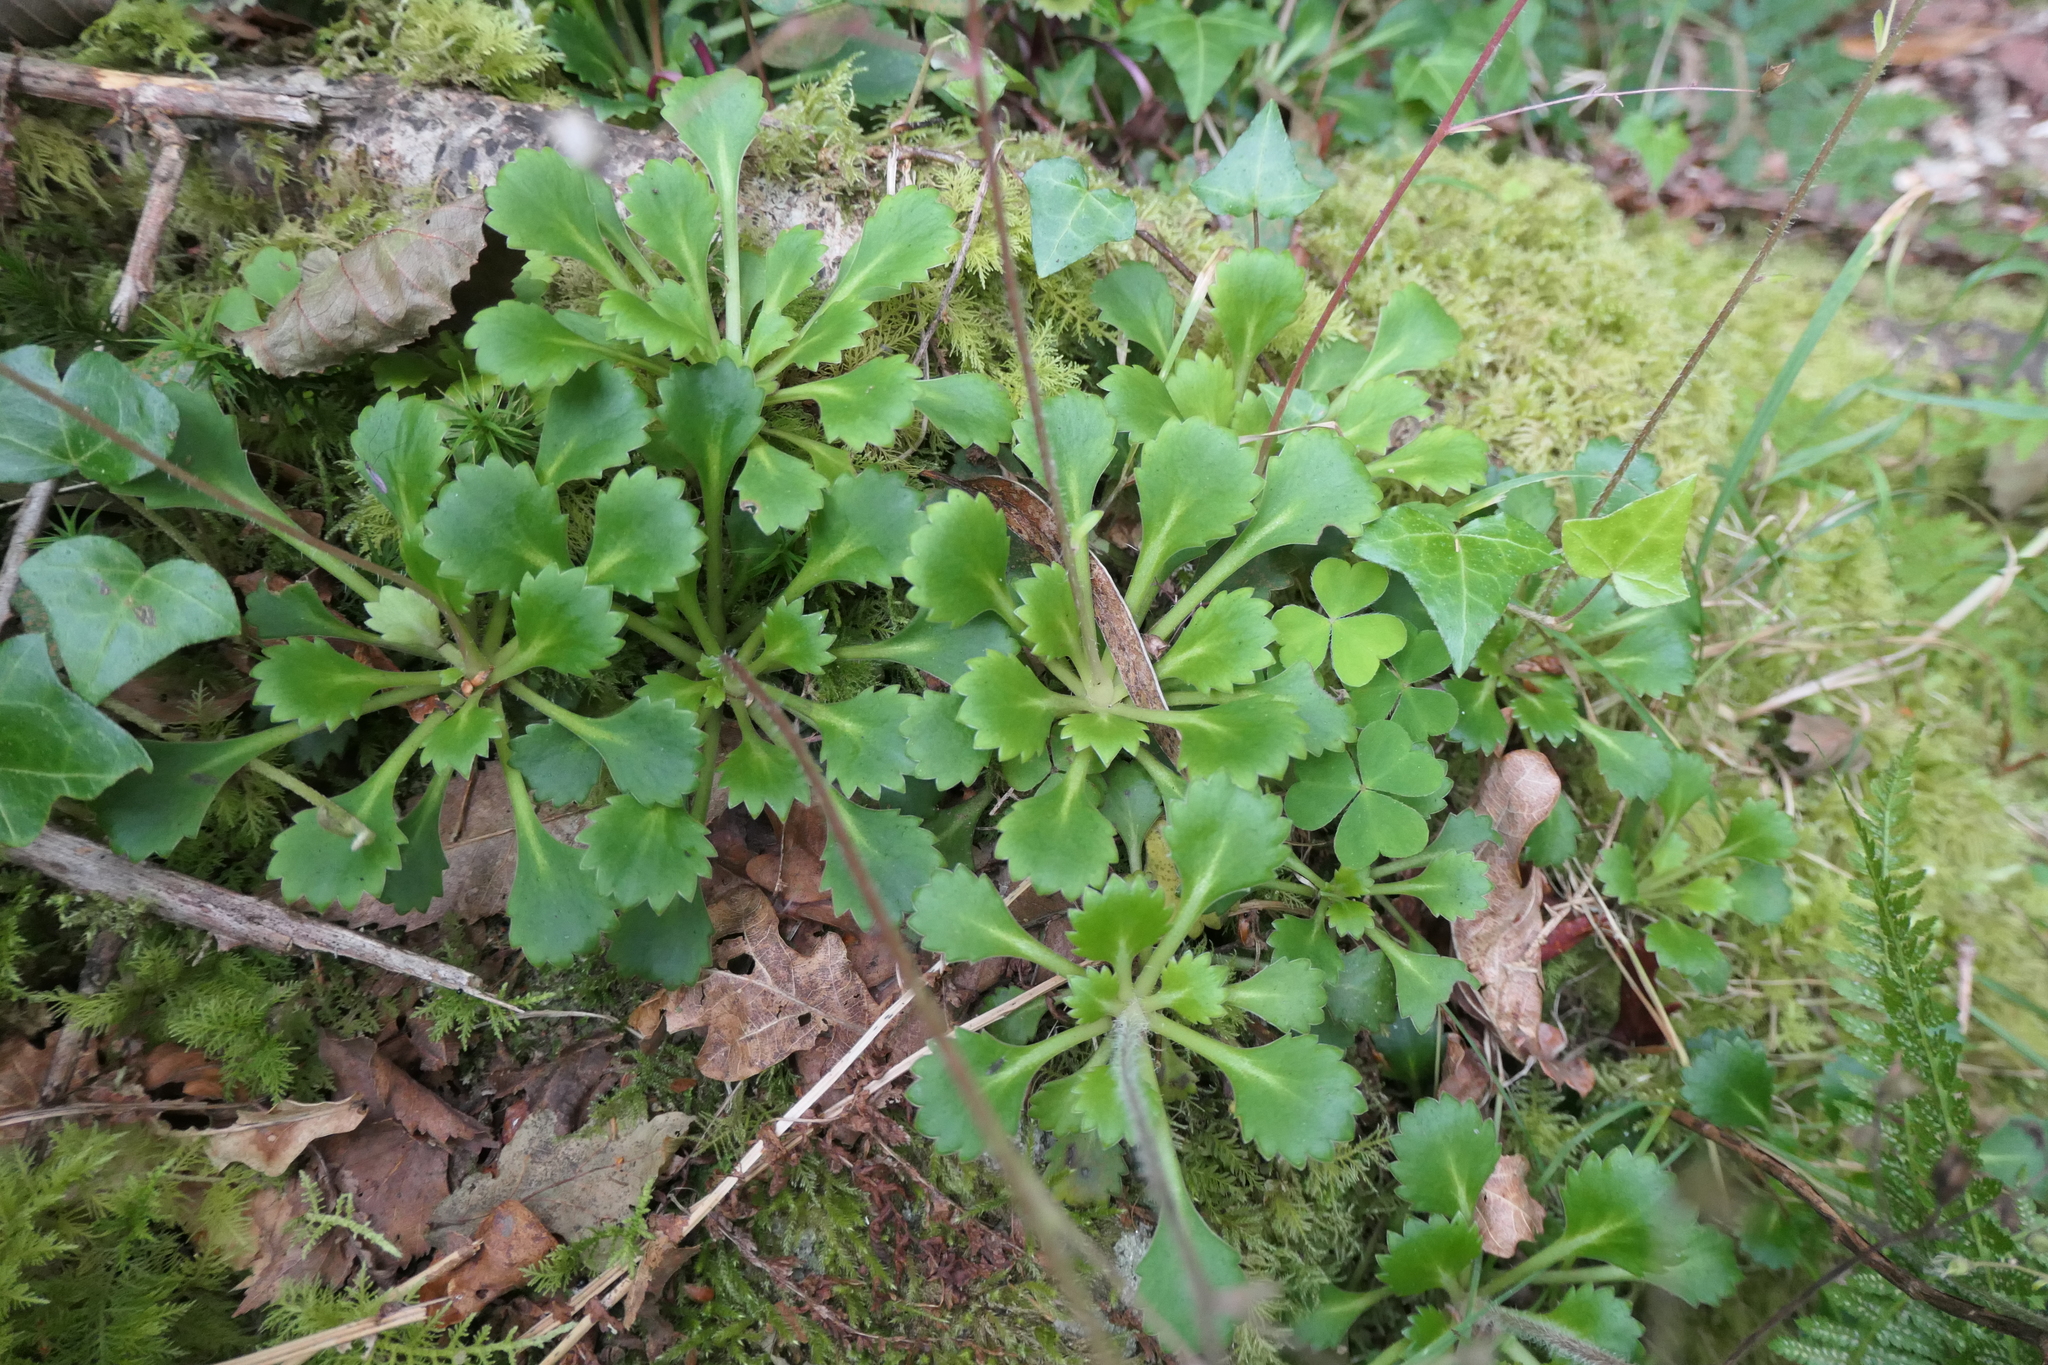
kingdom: Plantae
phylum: Tracheophyta
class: Magnoliopsida
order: Saxifragales
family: Saxifragaceae
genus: Saxifraga
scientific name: Saxifraga spathularis
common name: St patrick's-cabbage
